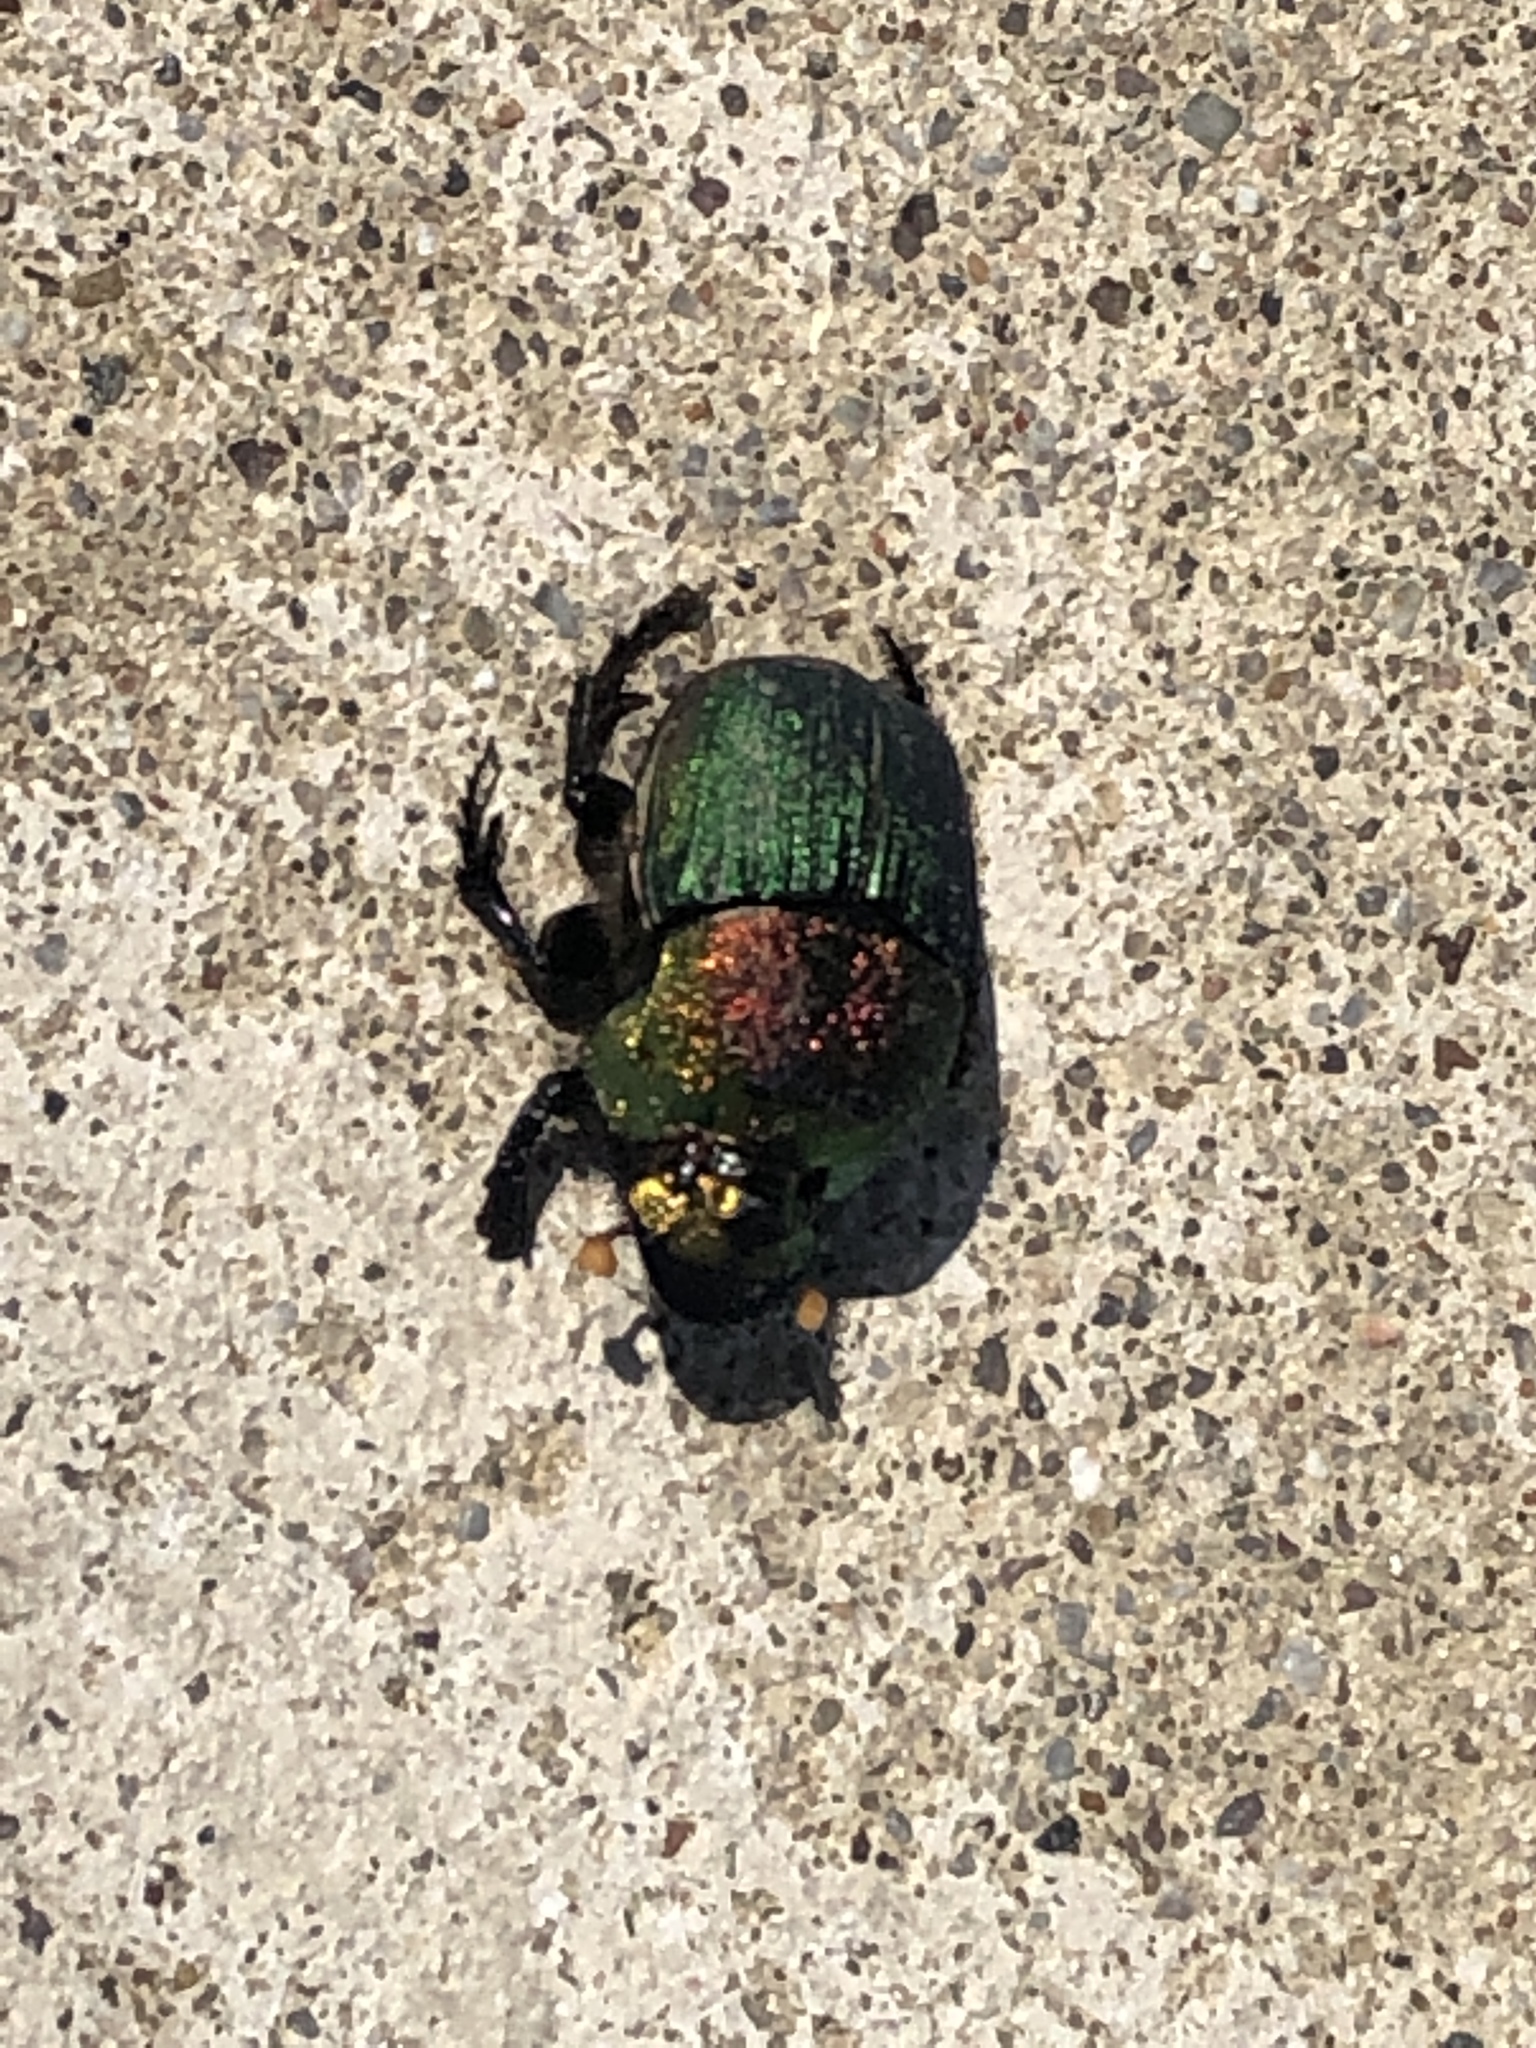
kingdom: Animalia
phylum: Arthropoda
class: Insecta
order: Coleoptera
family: Scarabaeidae
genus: Phanaeus
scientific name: Phanaeus vindex
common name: Rainbow scarab
